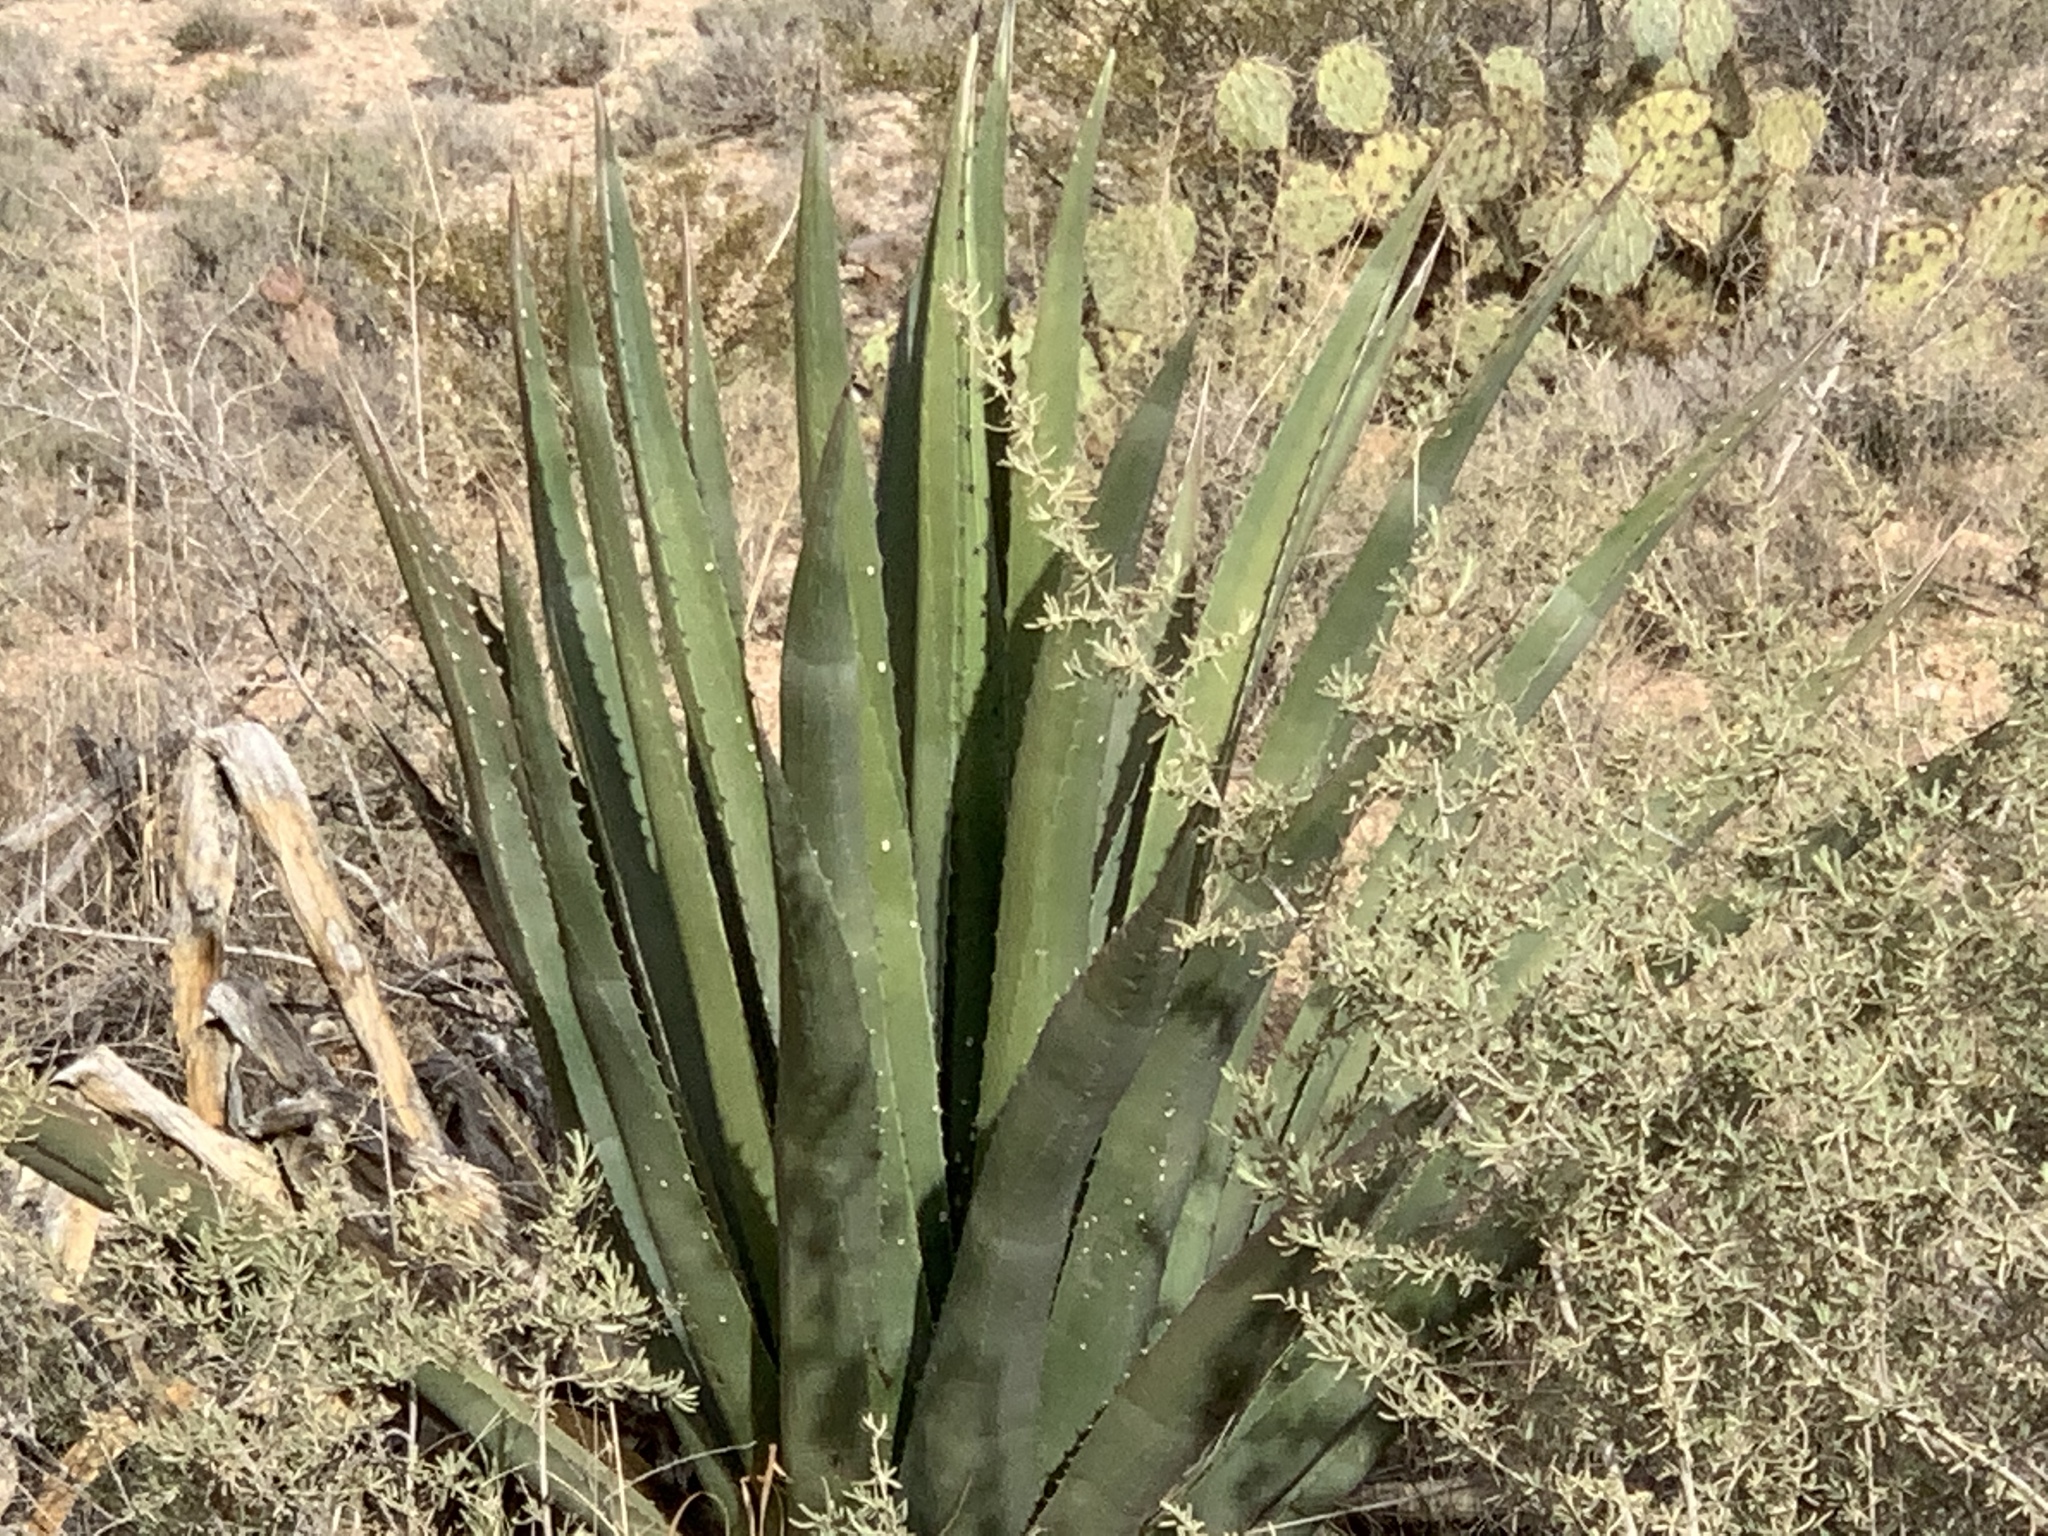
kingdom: Plantae
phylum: Tracheophyta
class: Liliopsida
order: Asparagales
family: Asparagaceae
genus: Agave
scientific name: Agave palmeri
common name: Palmer agave
